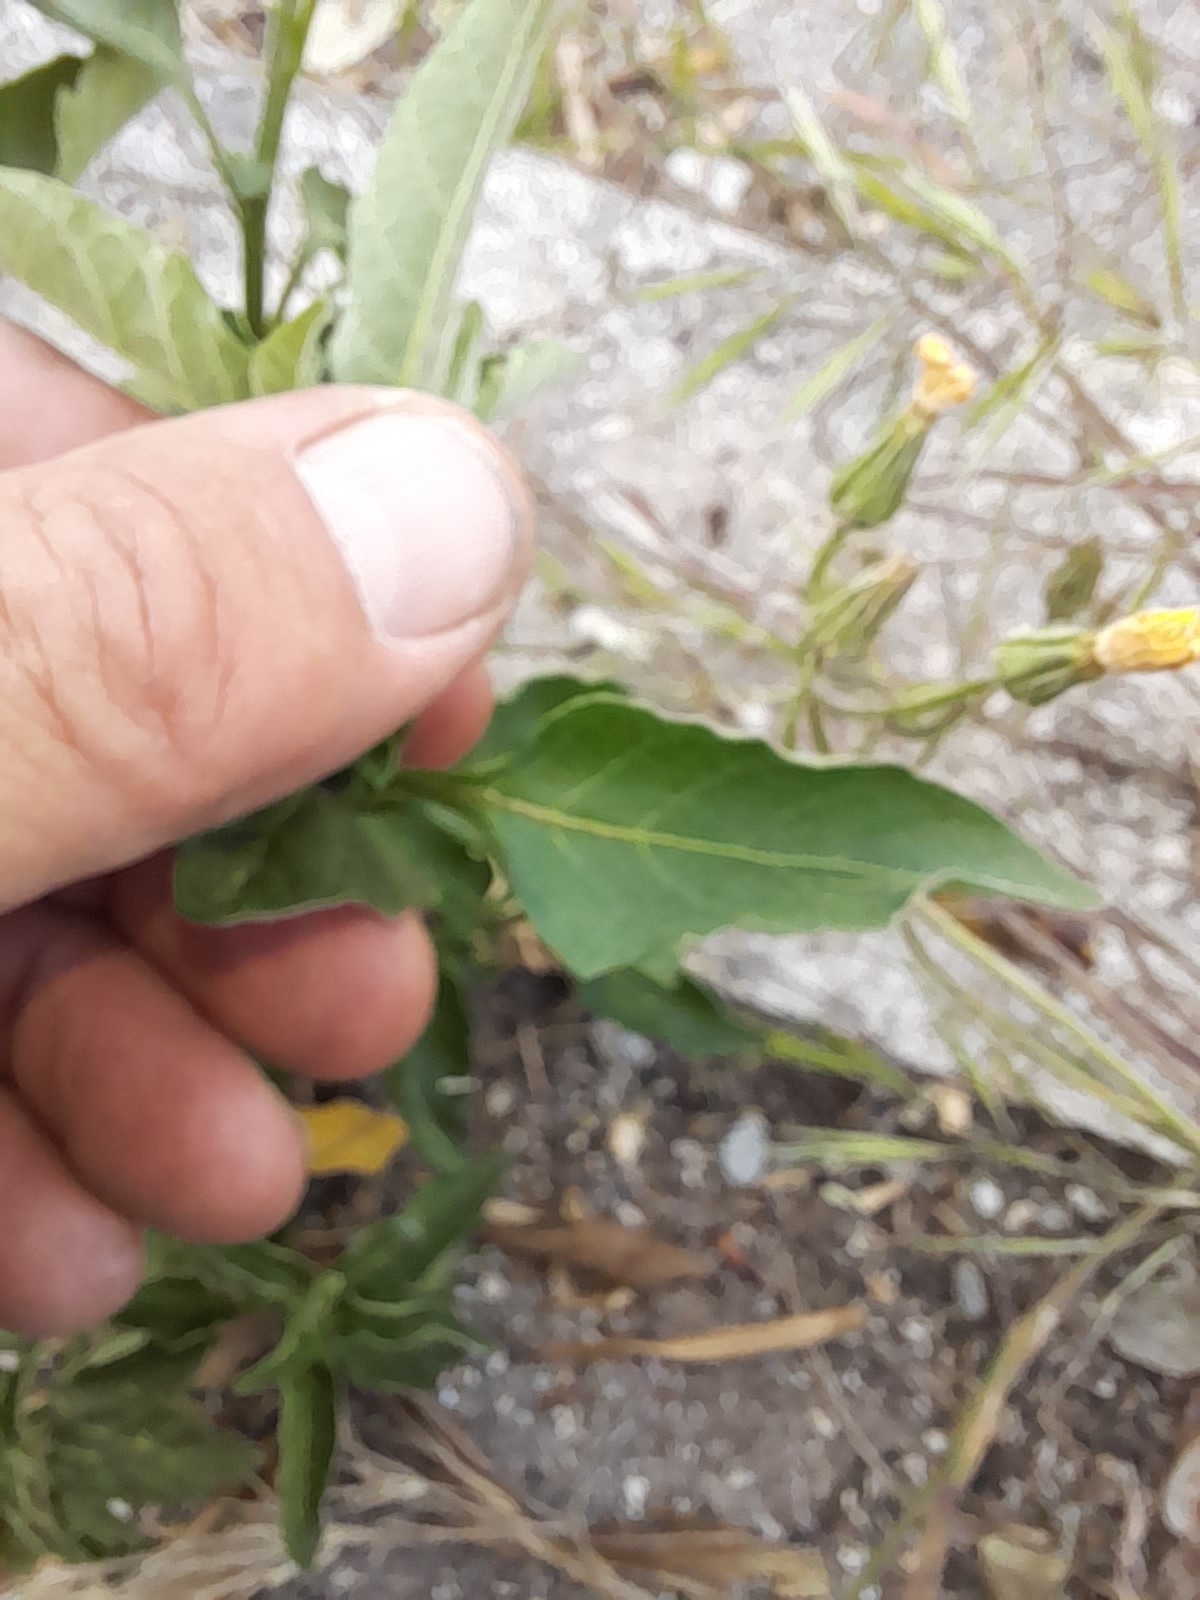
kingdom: Plantae
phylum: Tracheophyta
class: Magnoliopsida
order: Solanales
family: Solanaceae
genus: Solanum
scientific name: Solanum chenopodioides
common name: Tall nightshade
